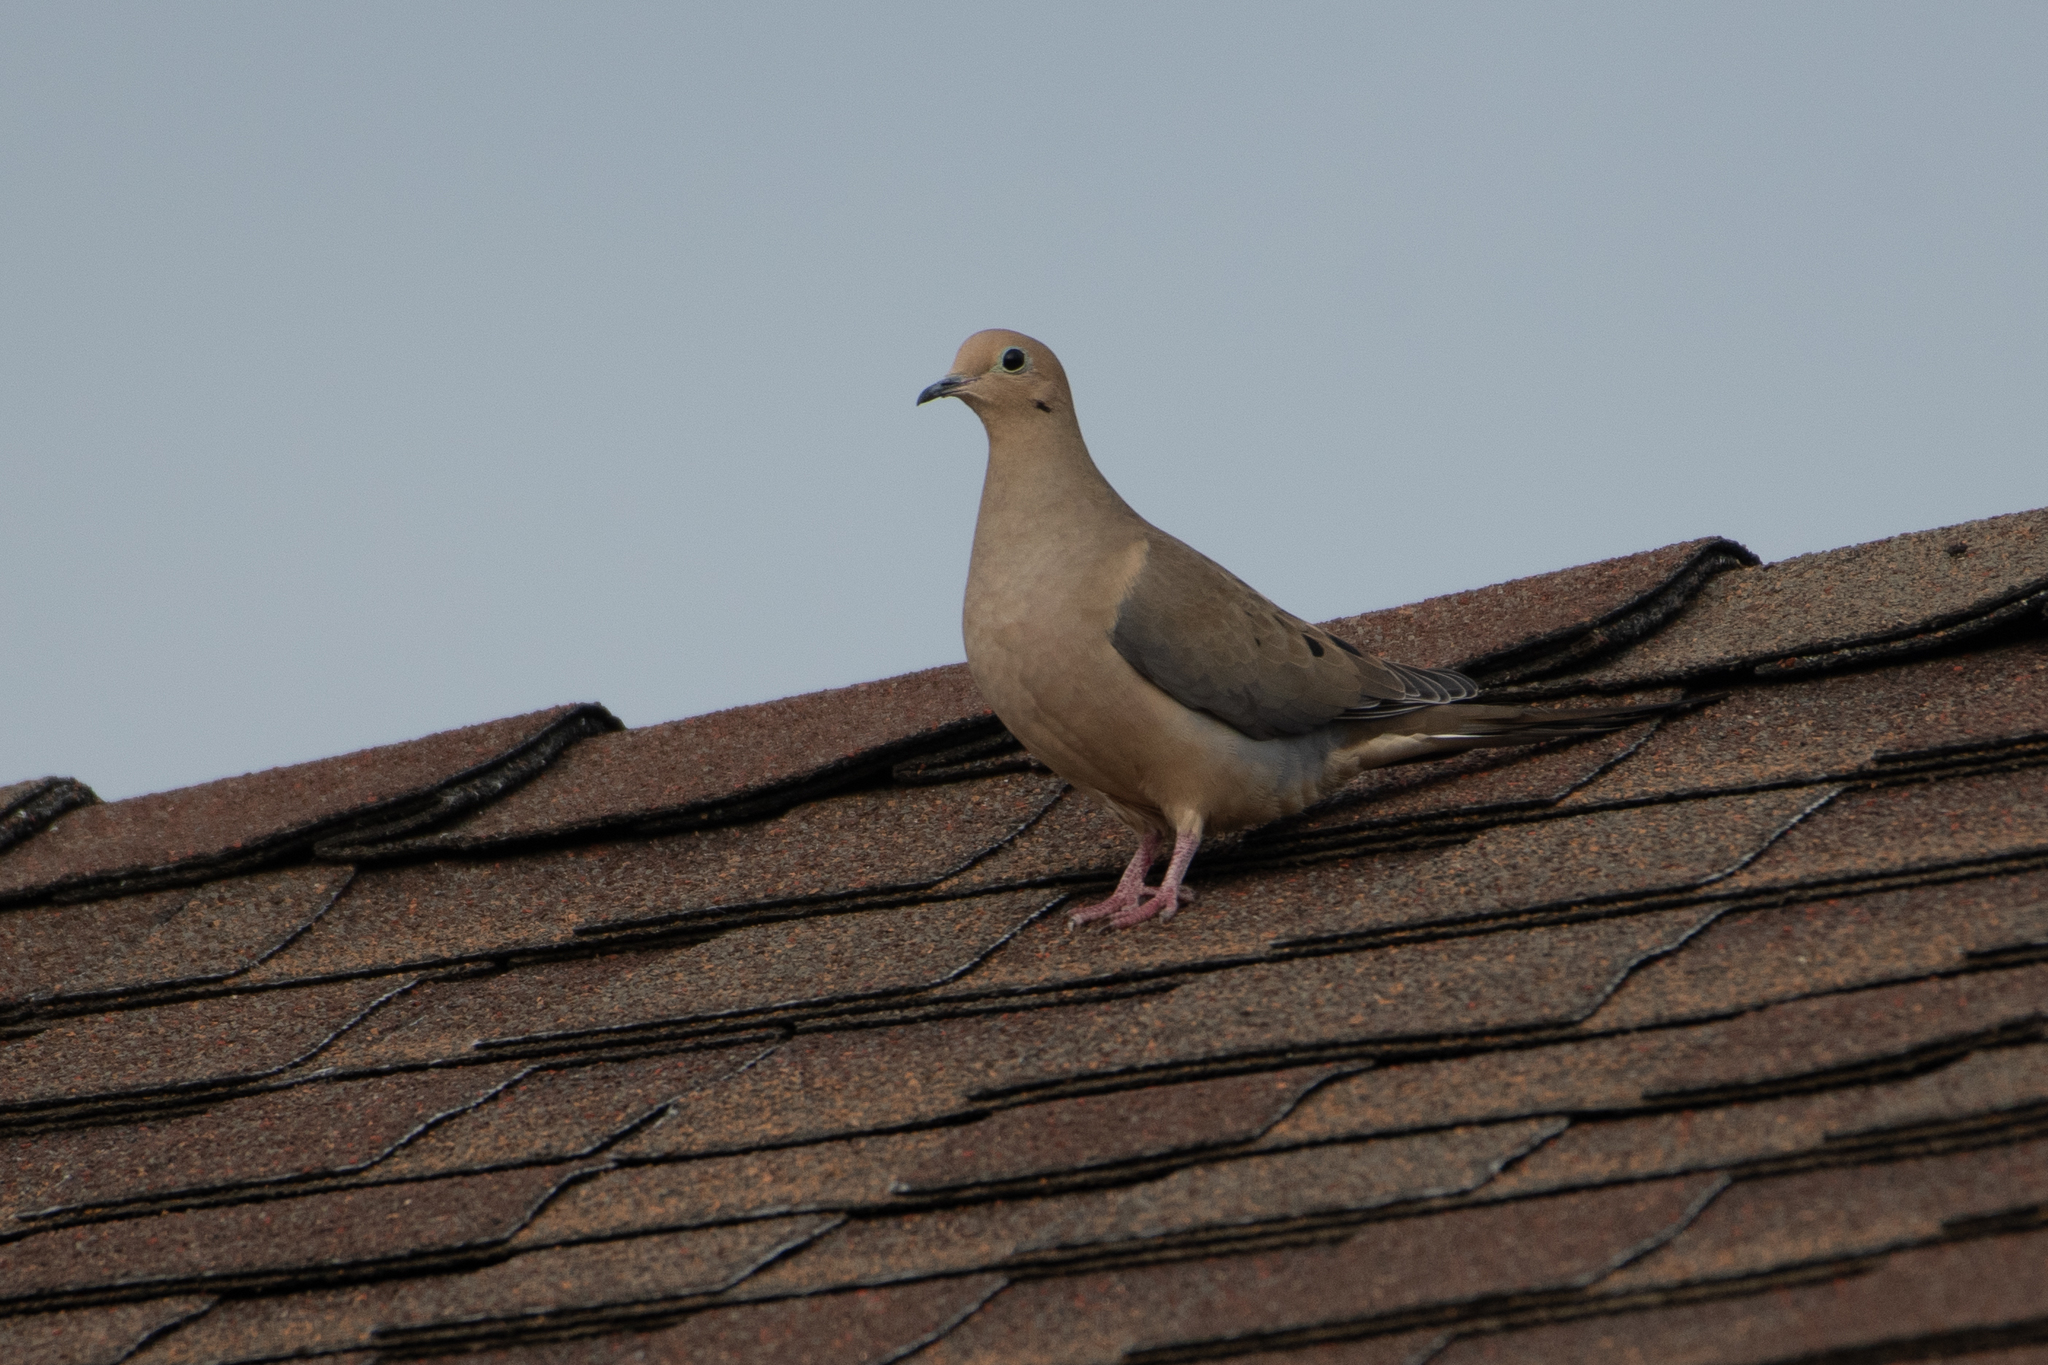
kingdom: Animalia
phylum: Chordata
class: Aves
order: Columbiformes
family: Columbidae
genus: Zenaida
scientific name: Zenaida macroura
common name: Mourning dove
